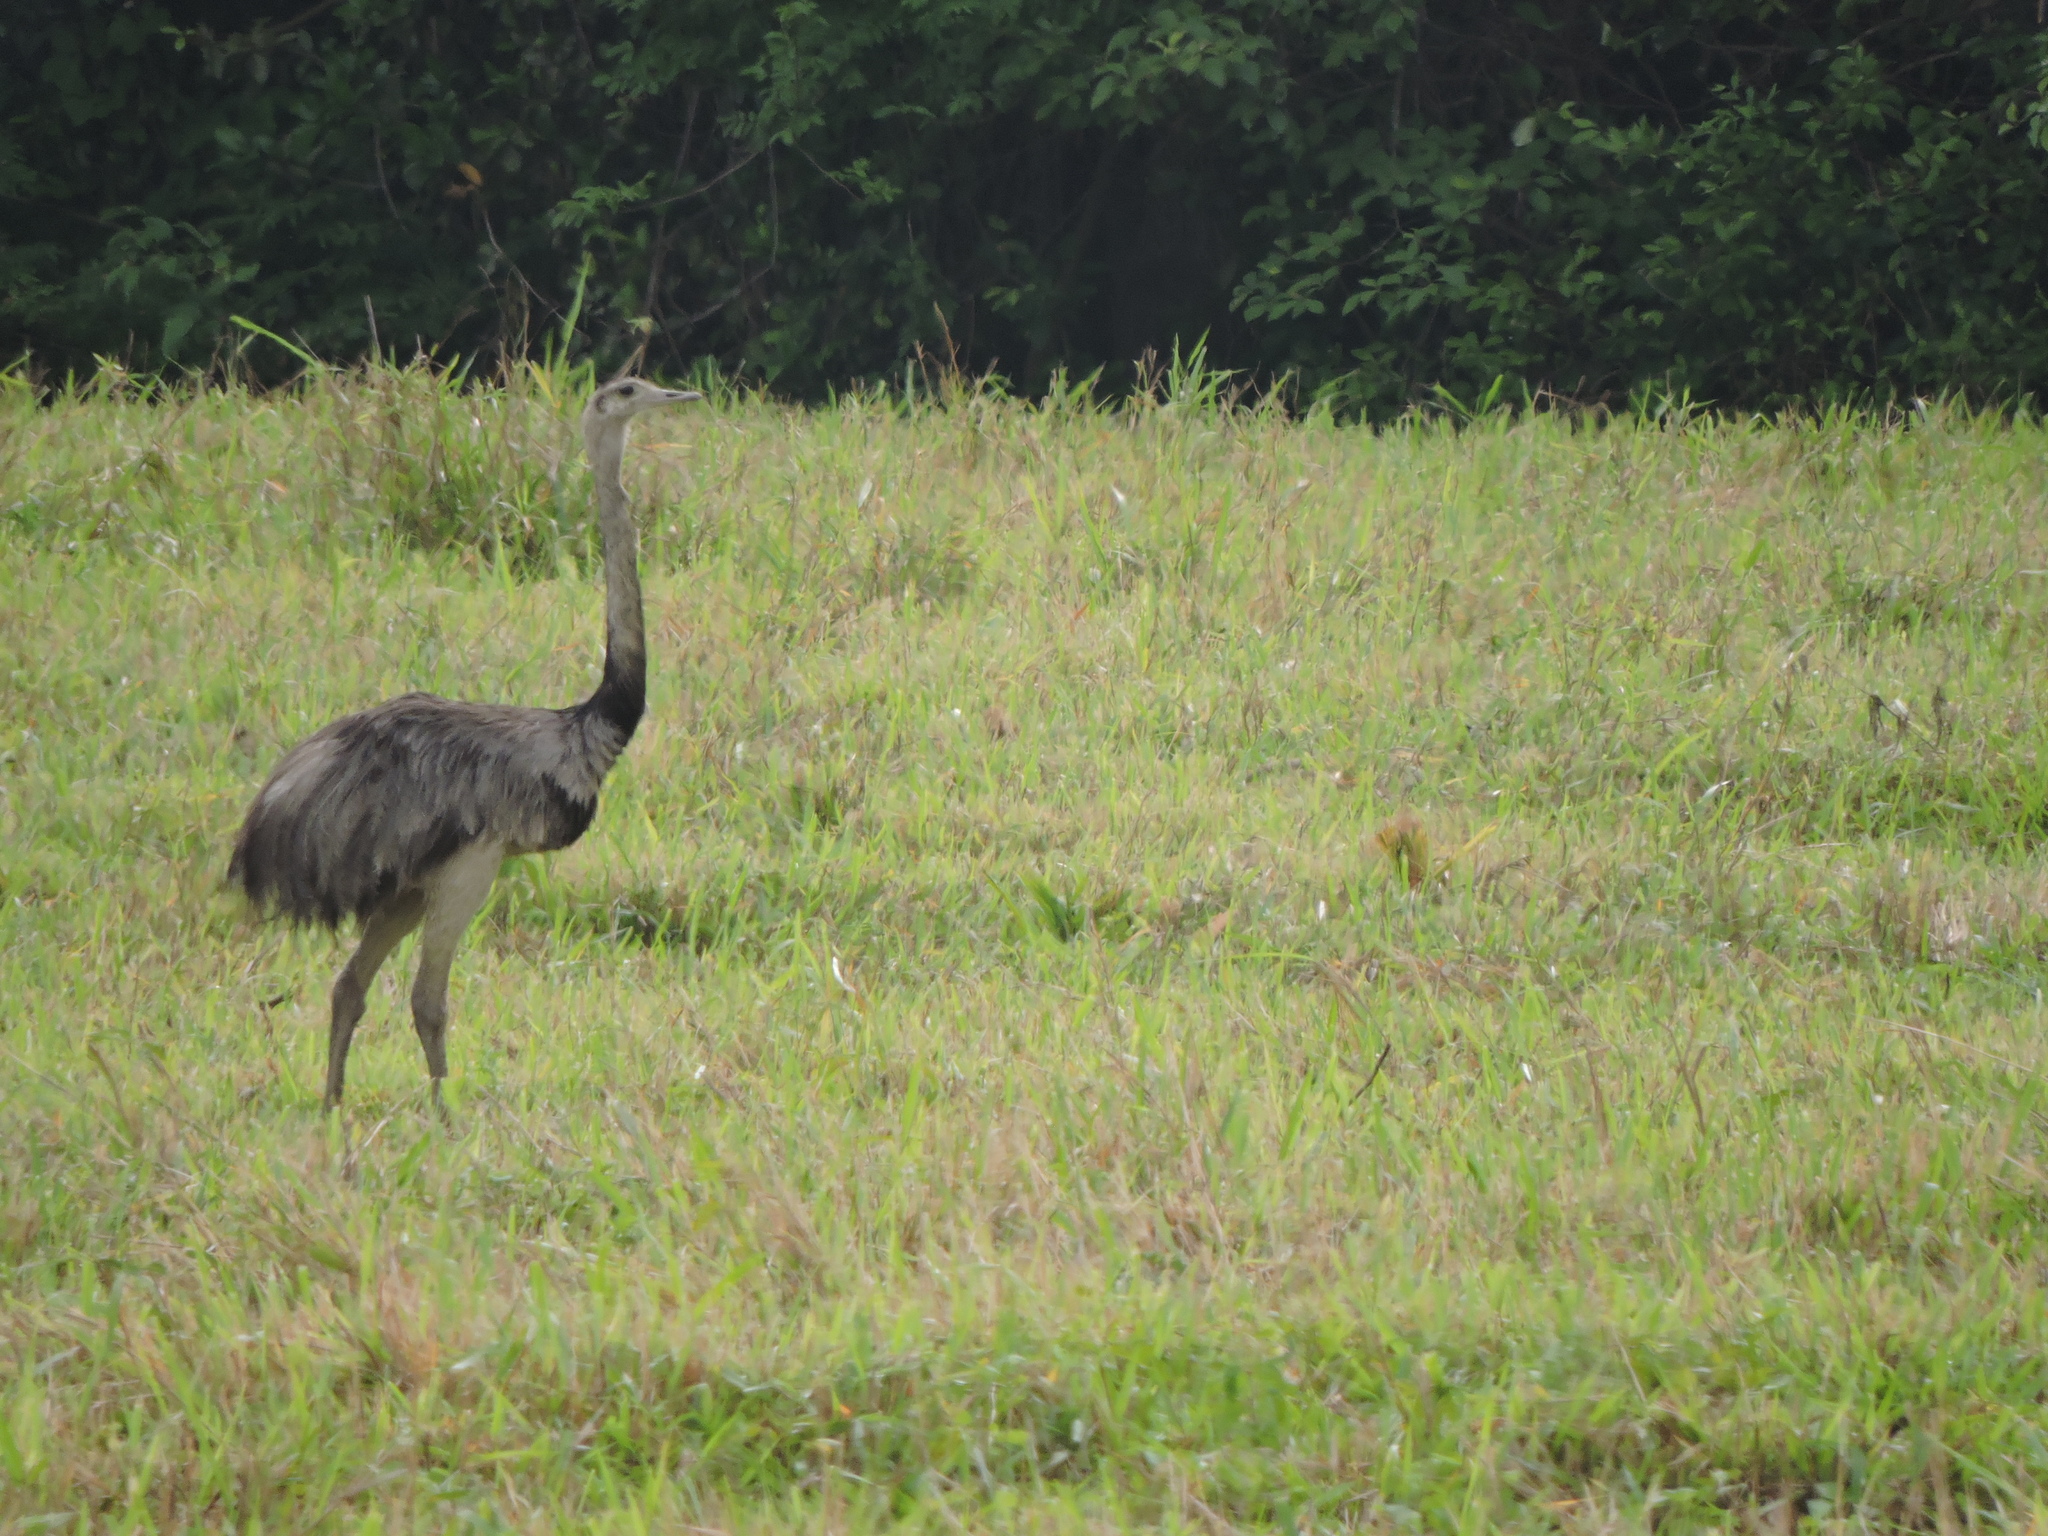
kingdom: Animalia
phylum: Chordata
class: Aves
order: Rheiformes
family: Rheidae
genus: Rhea
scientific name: Rhea americana
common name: Greater rhea
